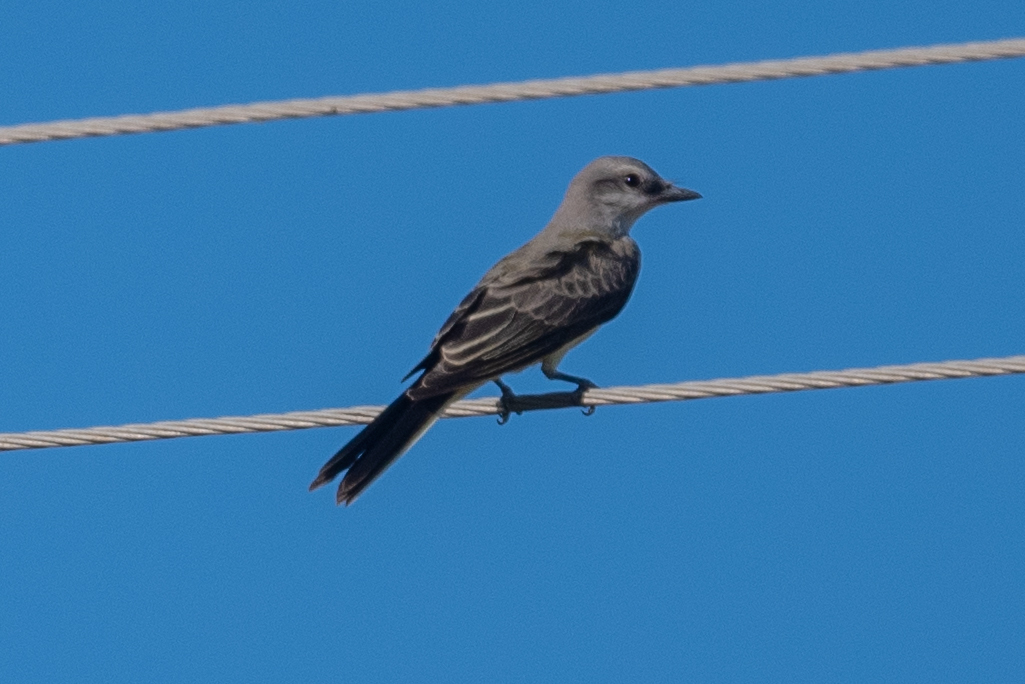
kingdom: Animalia
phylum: Chordata
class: Aves
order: Passeriformes
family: Tyrannidae
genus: Tyrannus
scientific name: Tyrannus verticalis
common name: Western kingbird
